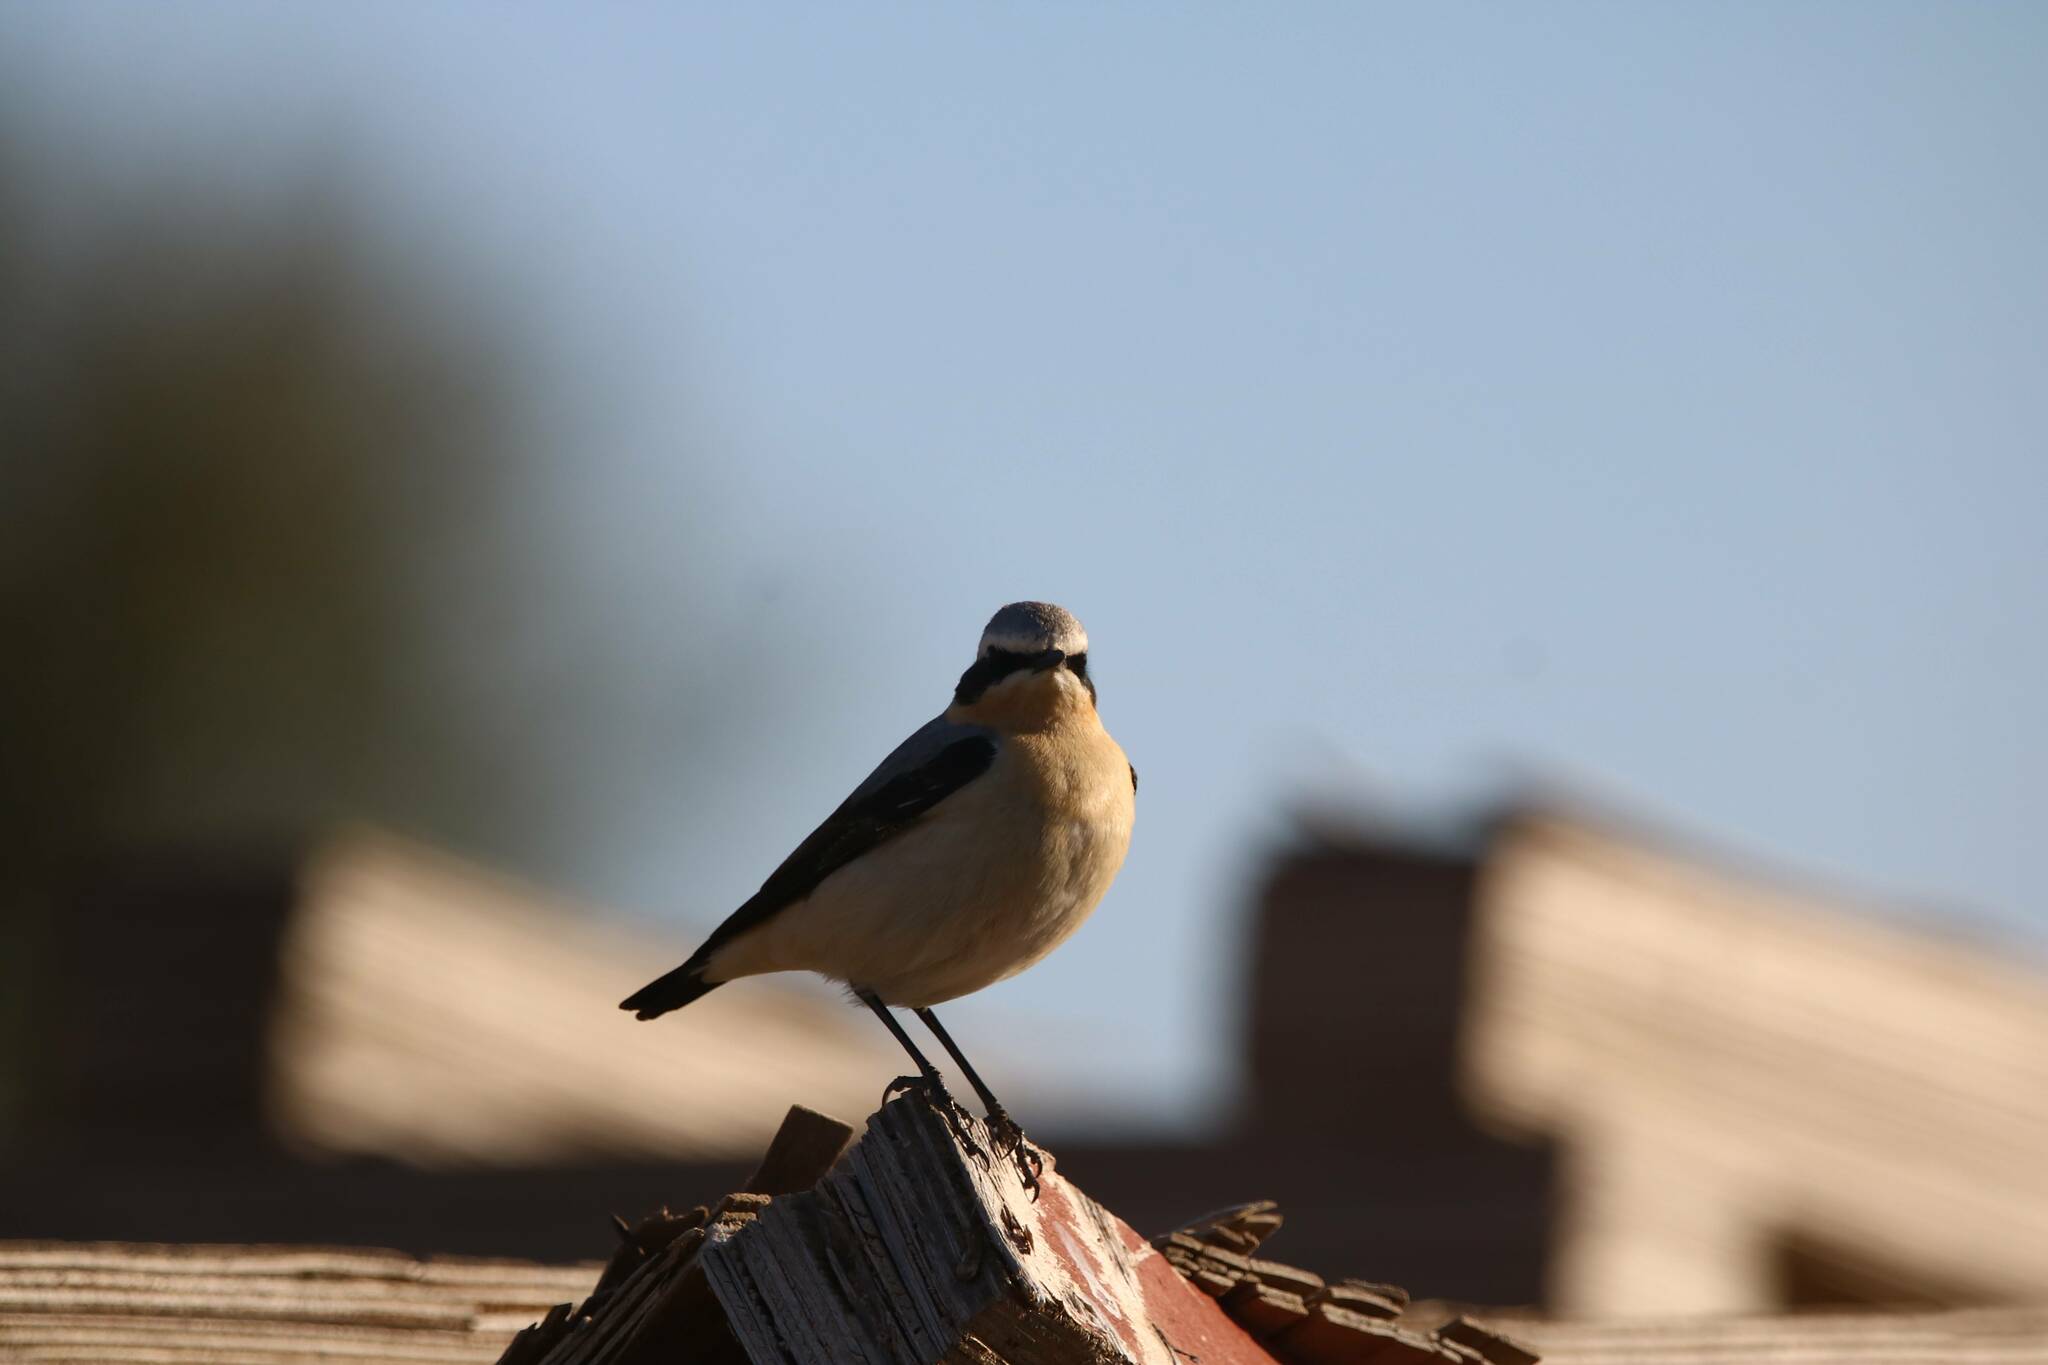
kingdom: Animalia
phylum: Chordata
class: Aves
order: Passeriformes
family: Muscicapidae
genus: Oenanthe
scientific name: Oenanthe oenanthe
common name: Northern wheatear
